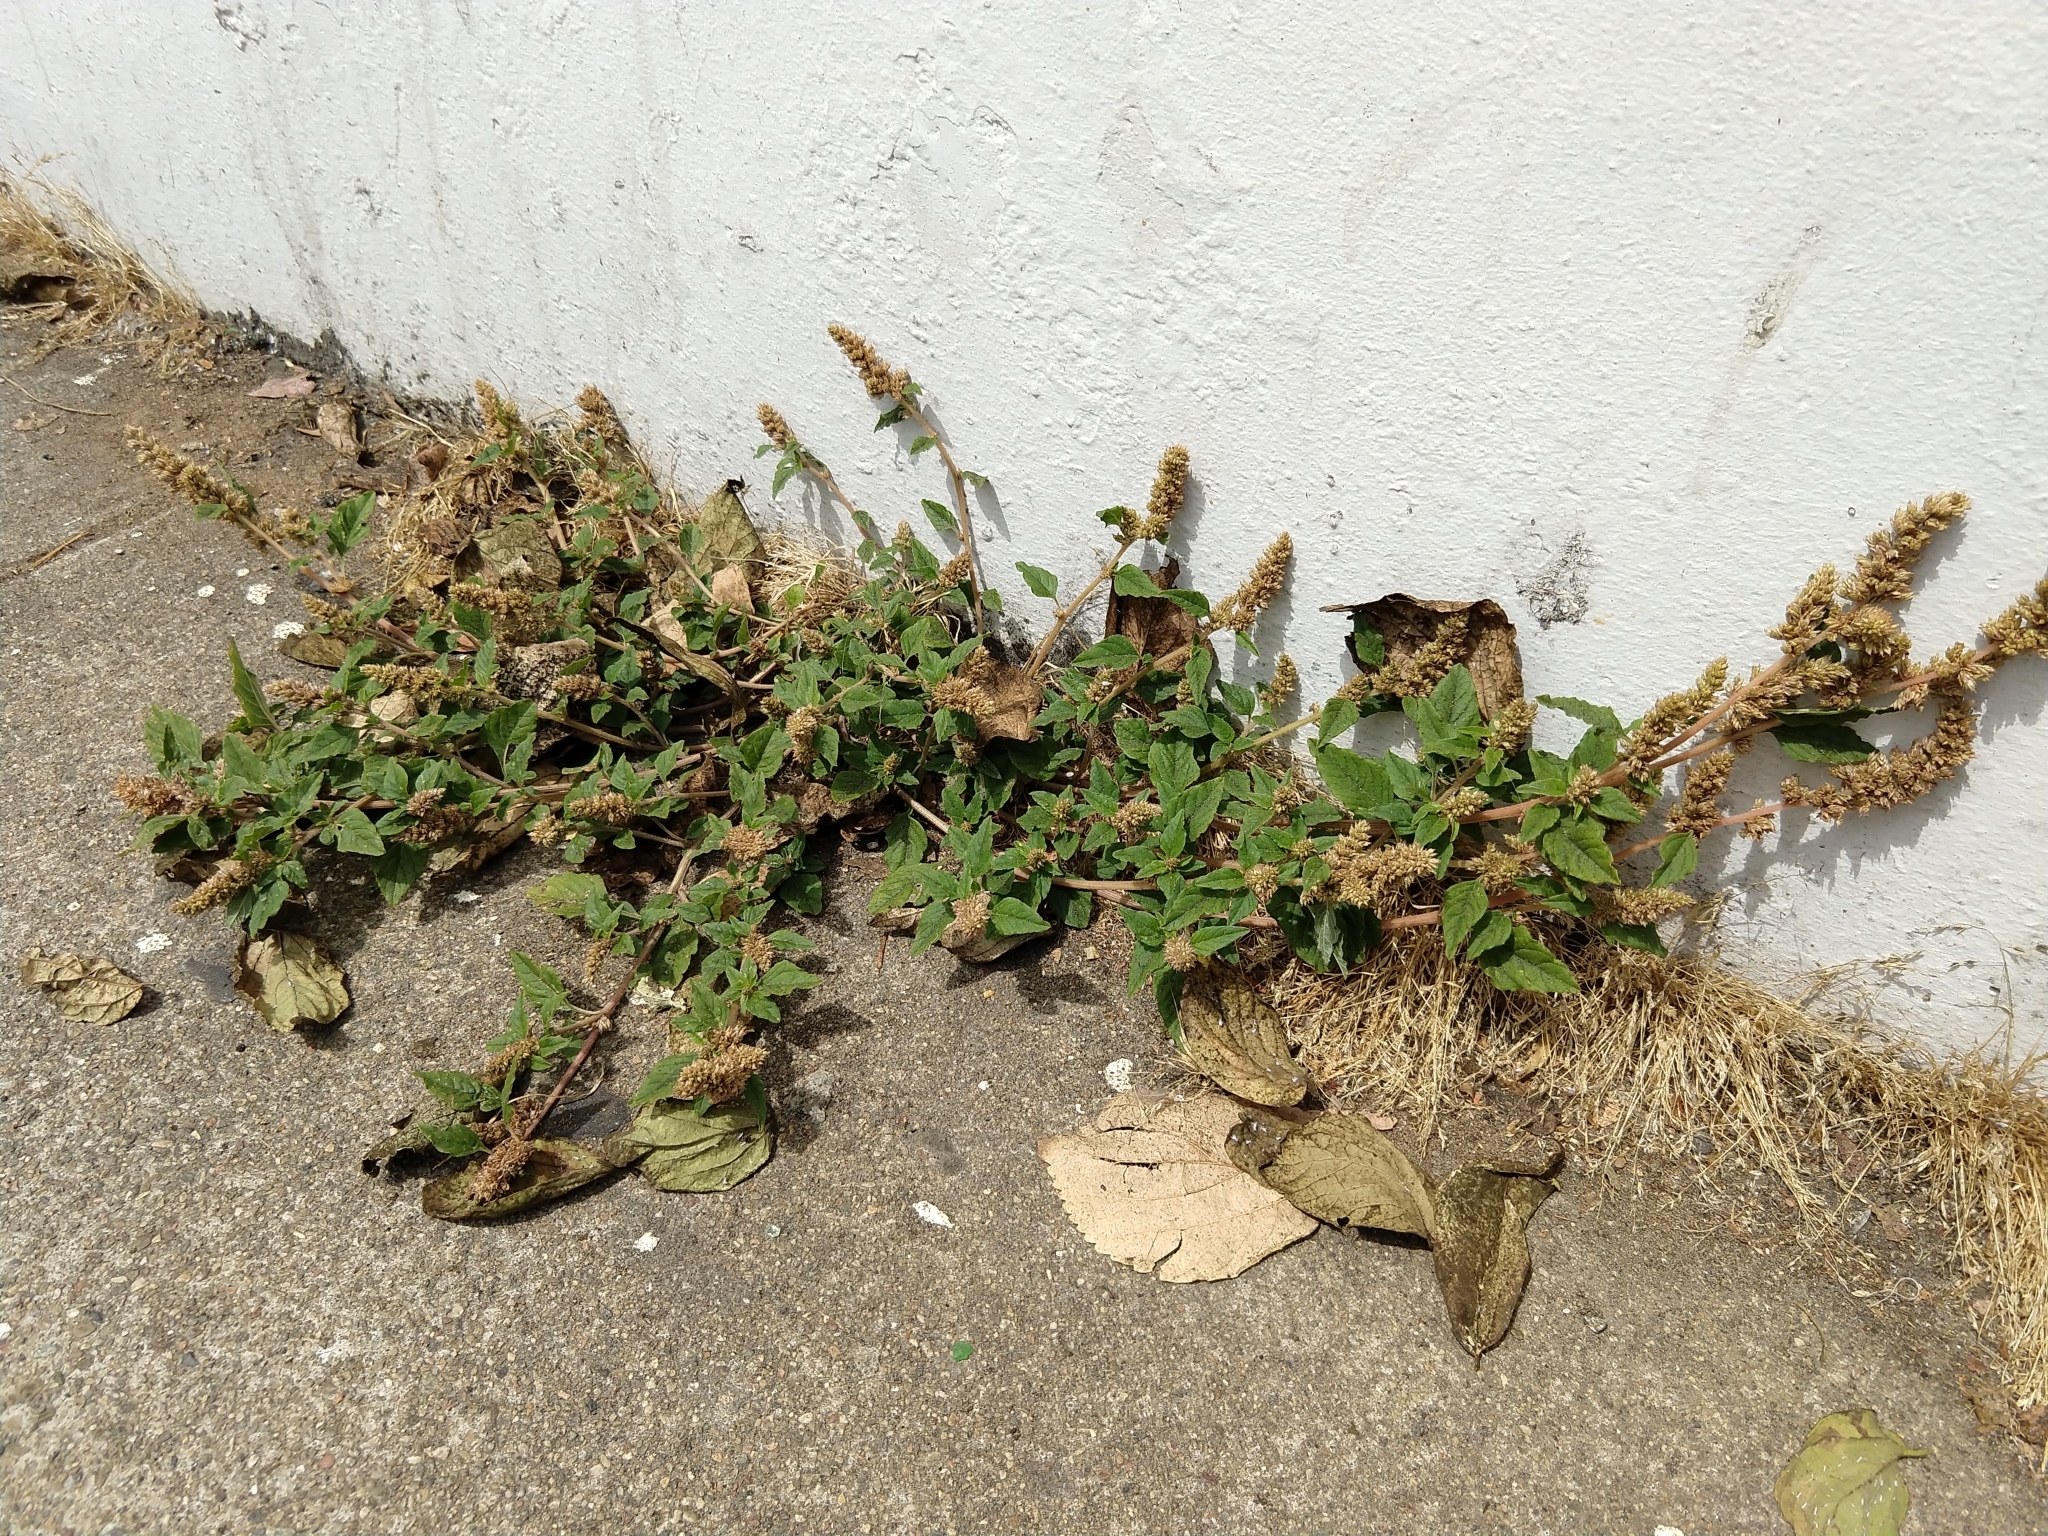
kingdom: Plantae
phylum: Tracheophyta
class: Magnoliopsida
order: Caryophyllales
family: Amaranthaceae
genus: Amaranthus
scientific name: Amaranthus deflexus
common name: Perennial pigweed
